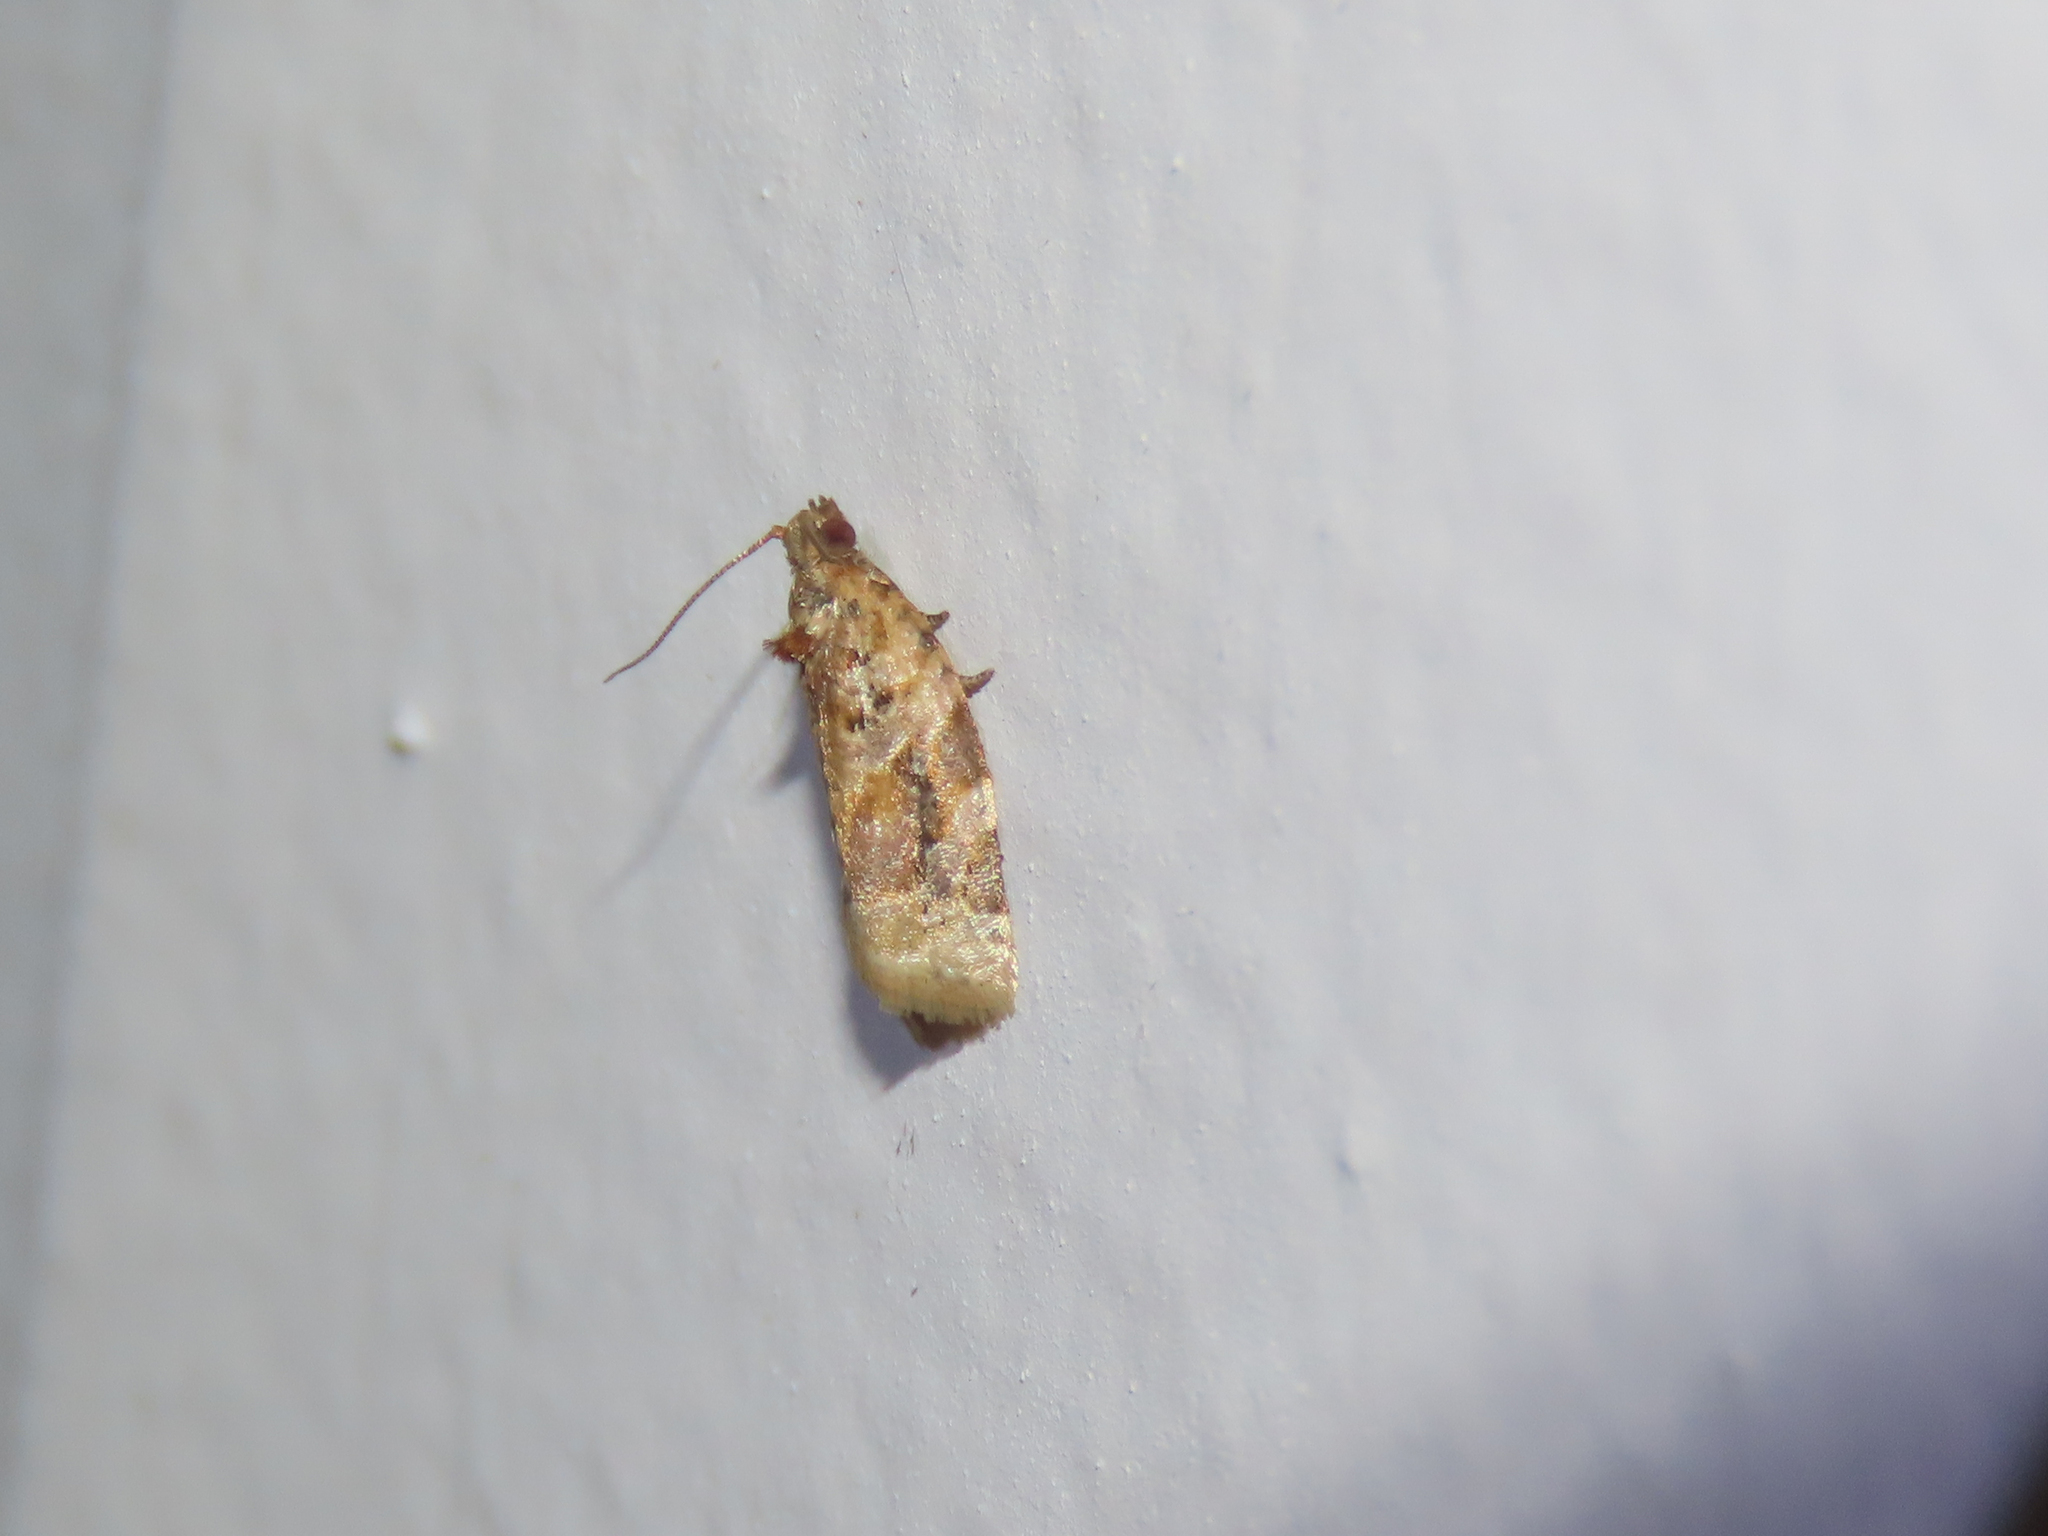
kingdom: Animalia
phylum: Arthropoda
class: Insecta
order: Lepidoptera
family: Tortricidae
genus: Argyrotaenia
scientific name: Argyrotaenia velutinana
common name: Red-banded leafroller moth
